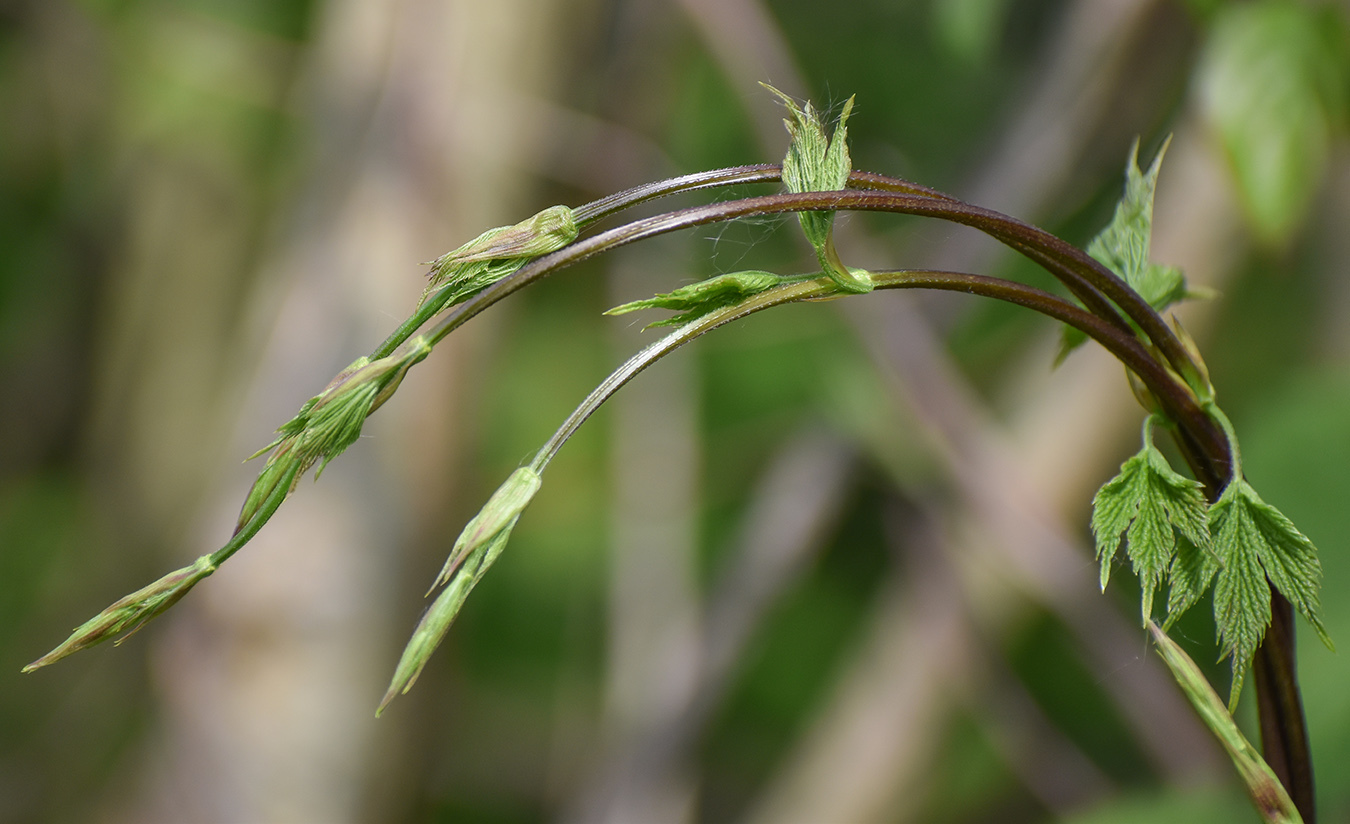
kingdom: Plantae
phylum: Tracheophyta
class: Magnoliopsida
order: Rosales
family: Cannabaceae
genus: Humulus
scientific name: Humulus lupulus
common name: Hop
